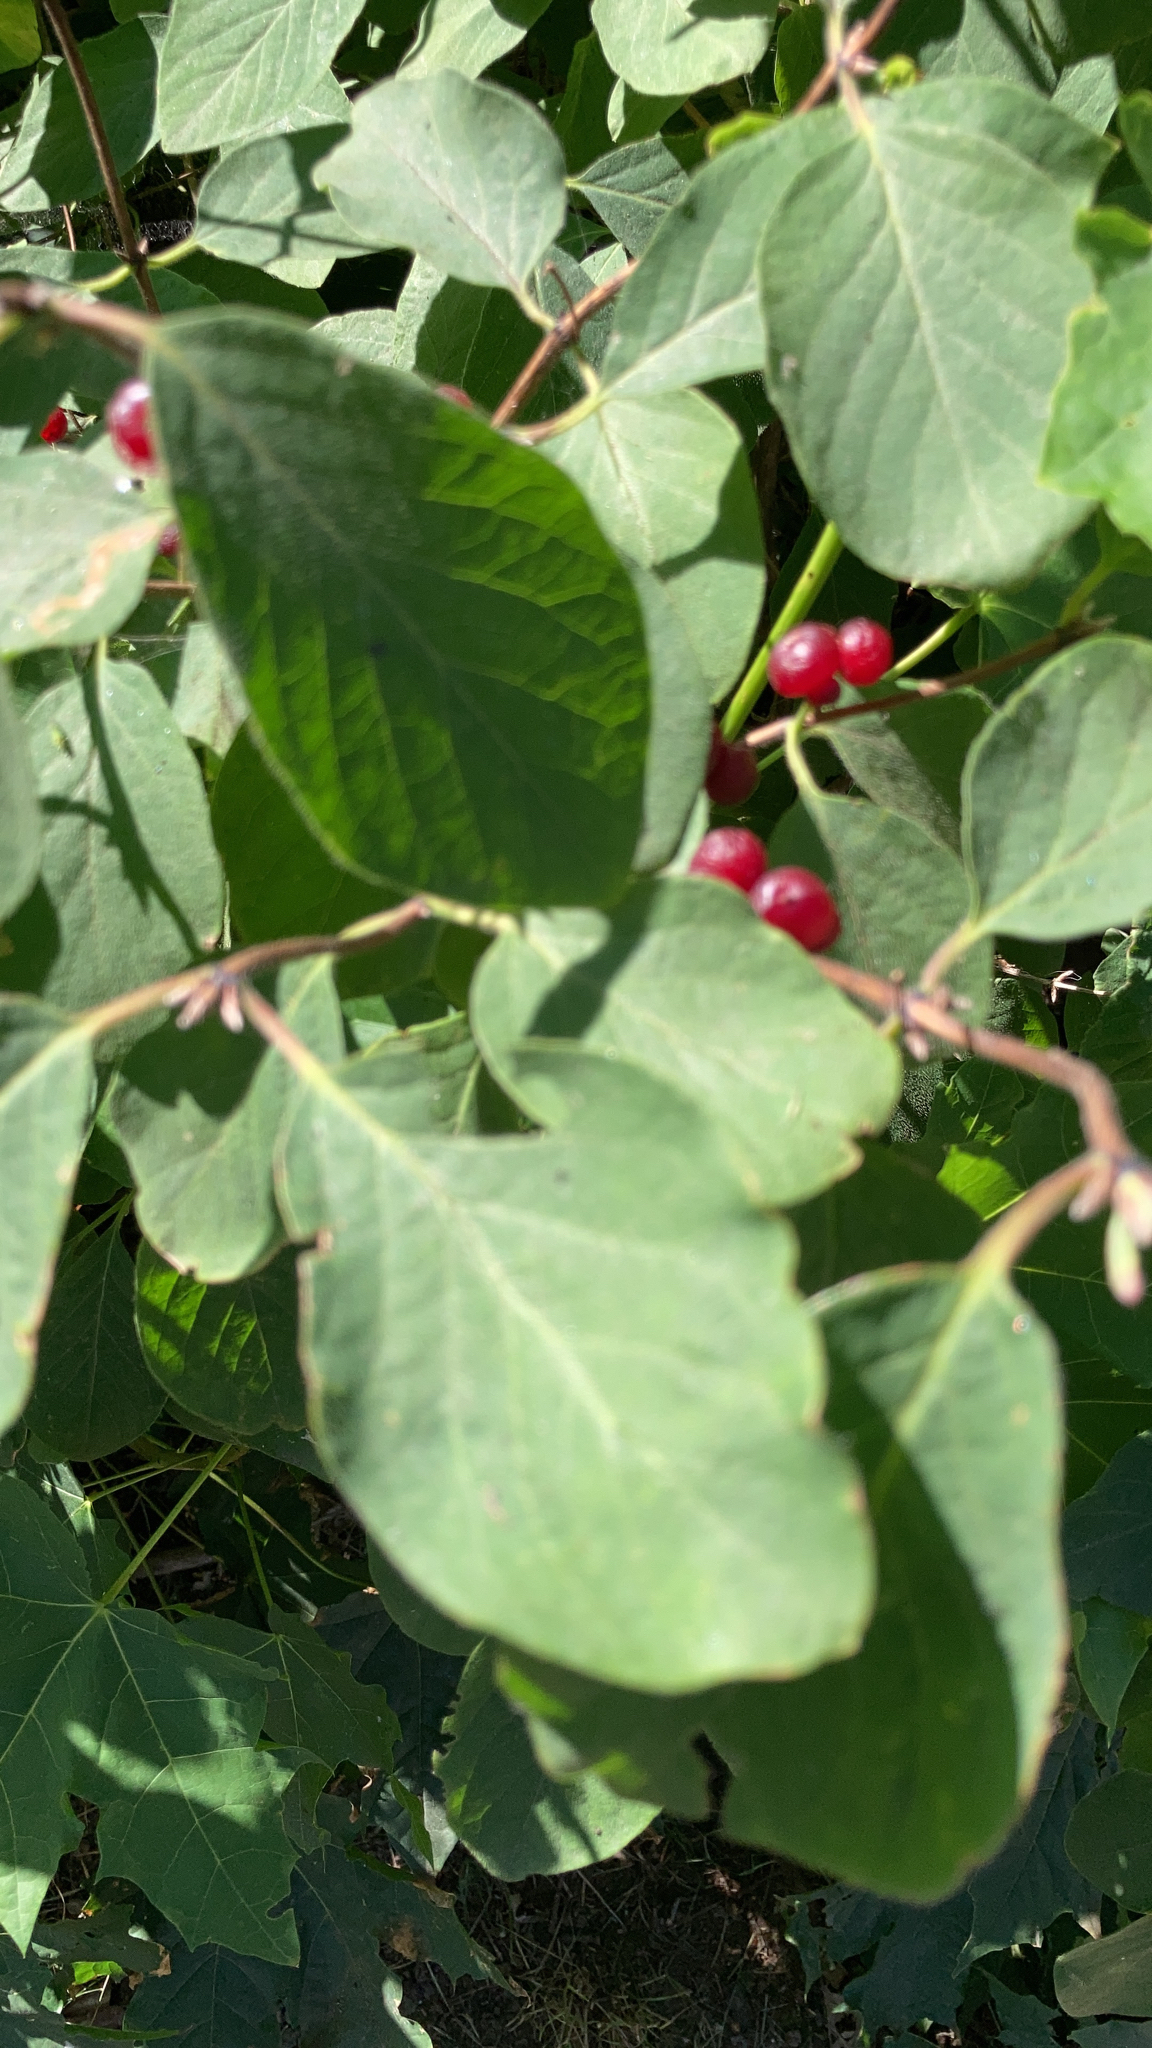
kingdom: Plantae
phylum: Tracheophyta
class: Magnoliopsida
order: Dipsacales
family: Caprifoliaceae
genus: Lonicera
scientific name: Lonicera xylosteum
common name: Fly honeysuckle
